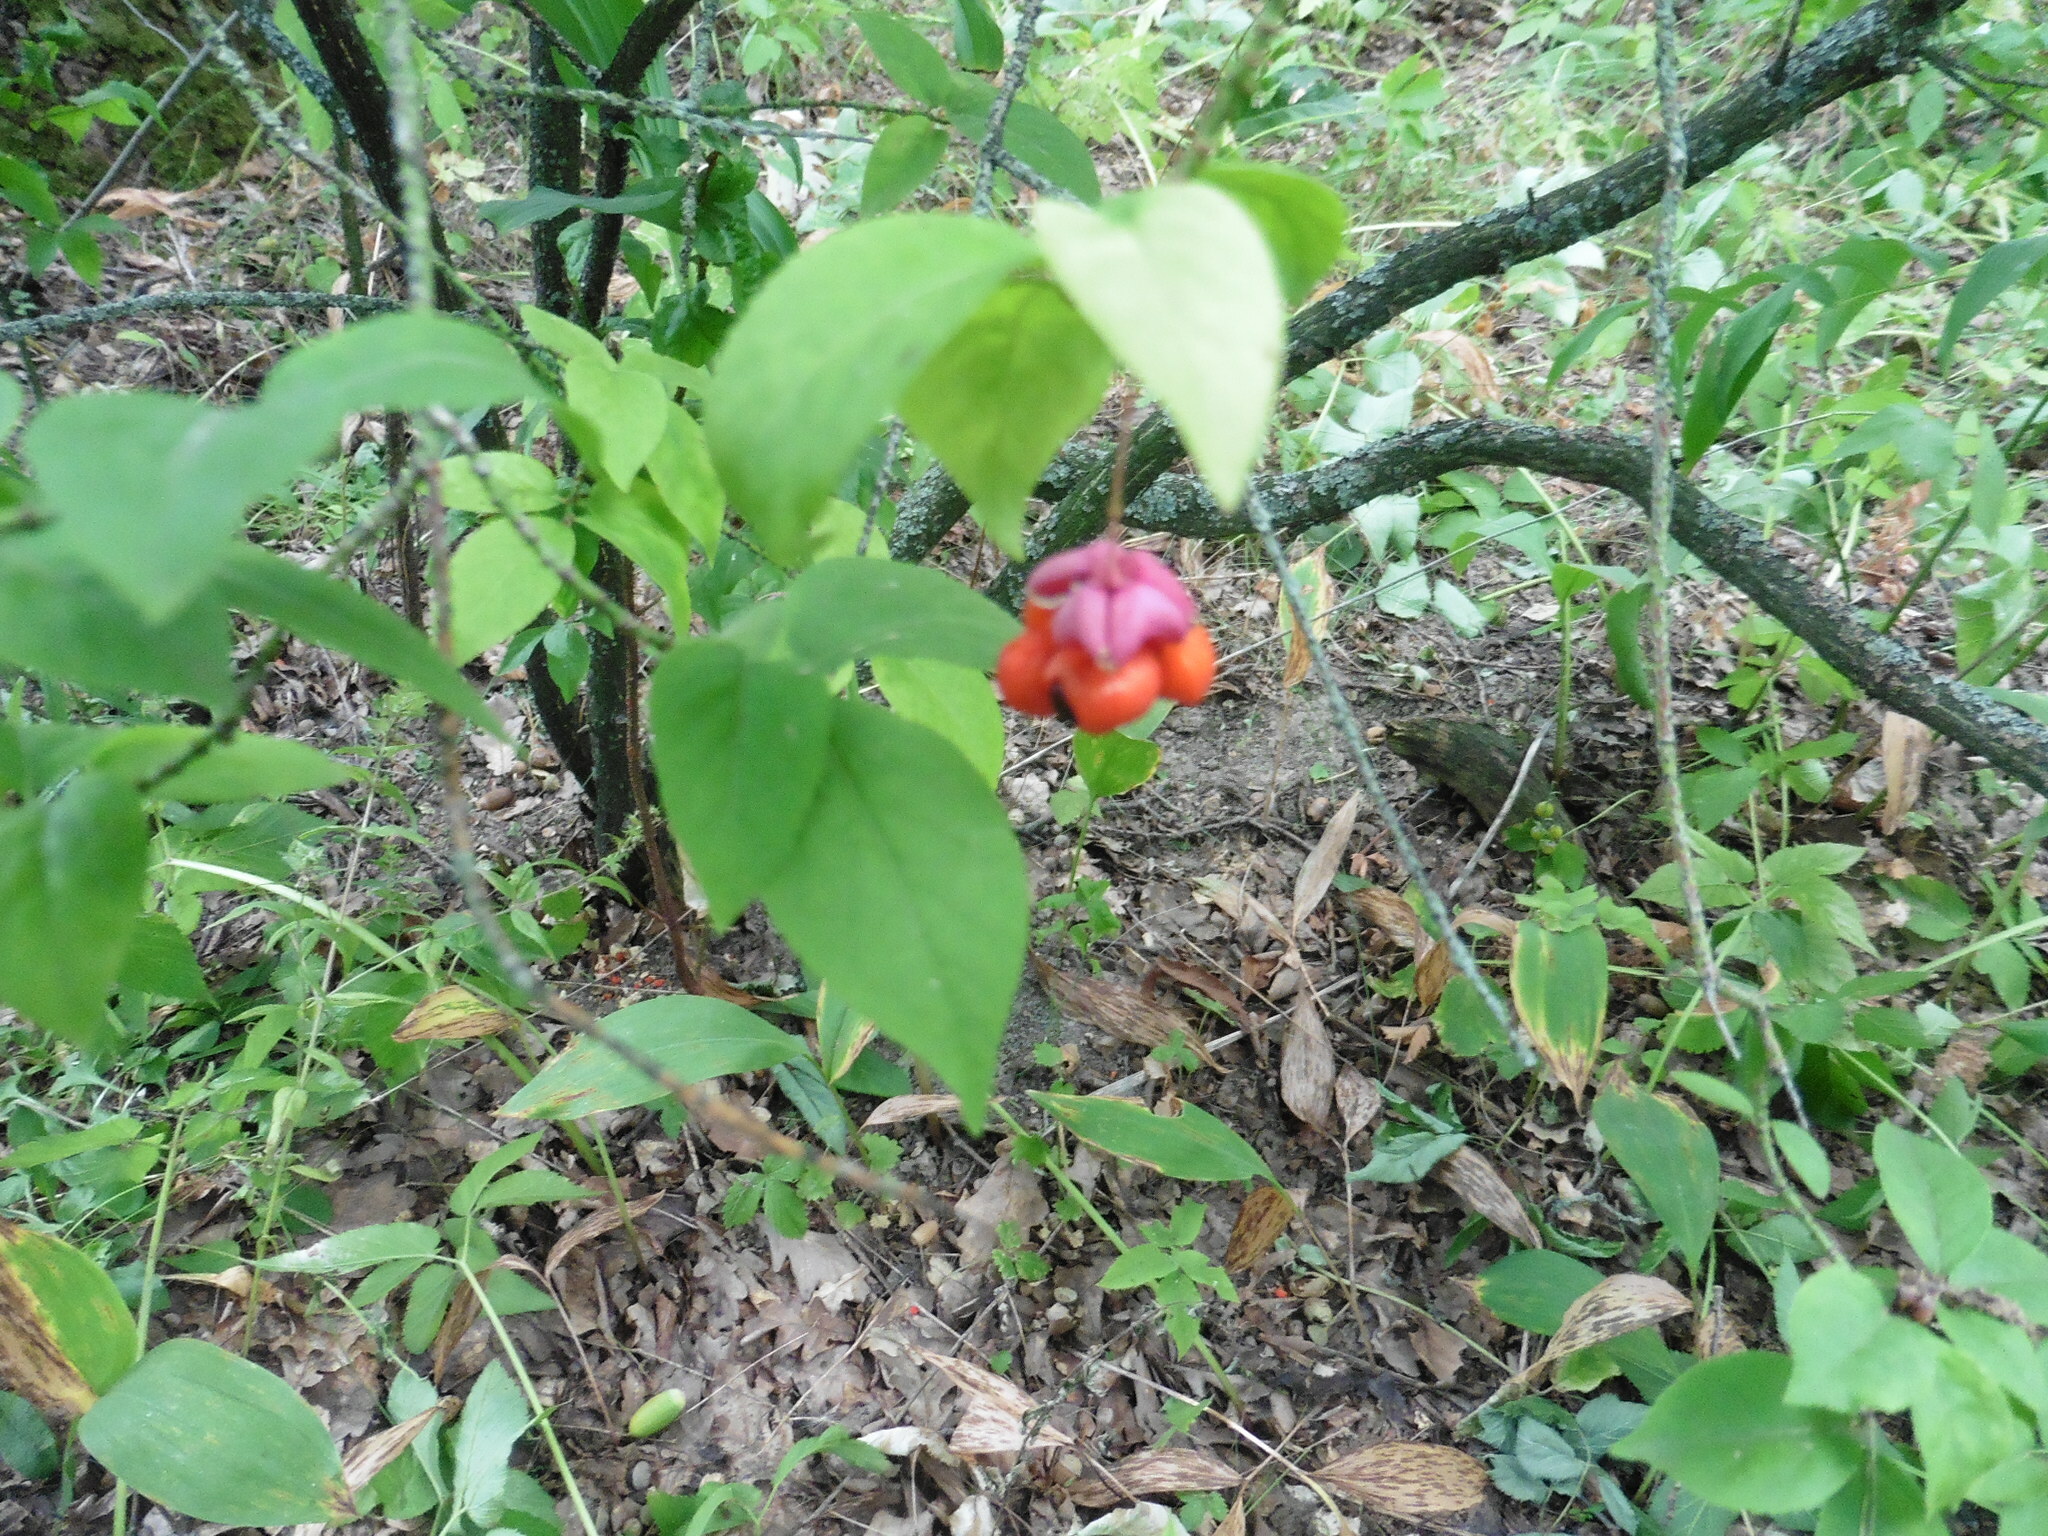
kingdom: Plantae
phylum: Tracheophyta
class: Magnoliopsida
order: Celastrales
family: Celastraceae
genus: Euonymus
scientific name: Euonymus verrucosus
